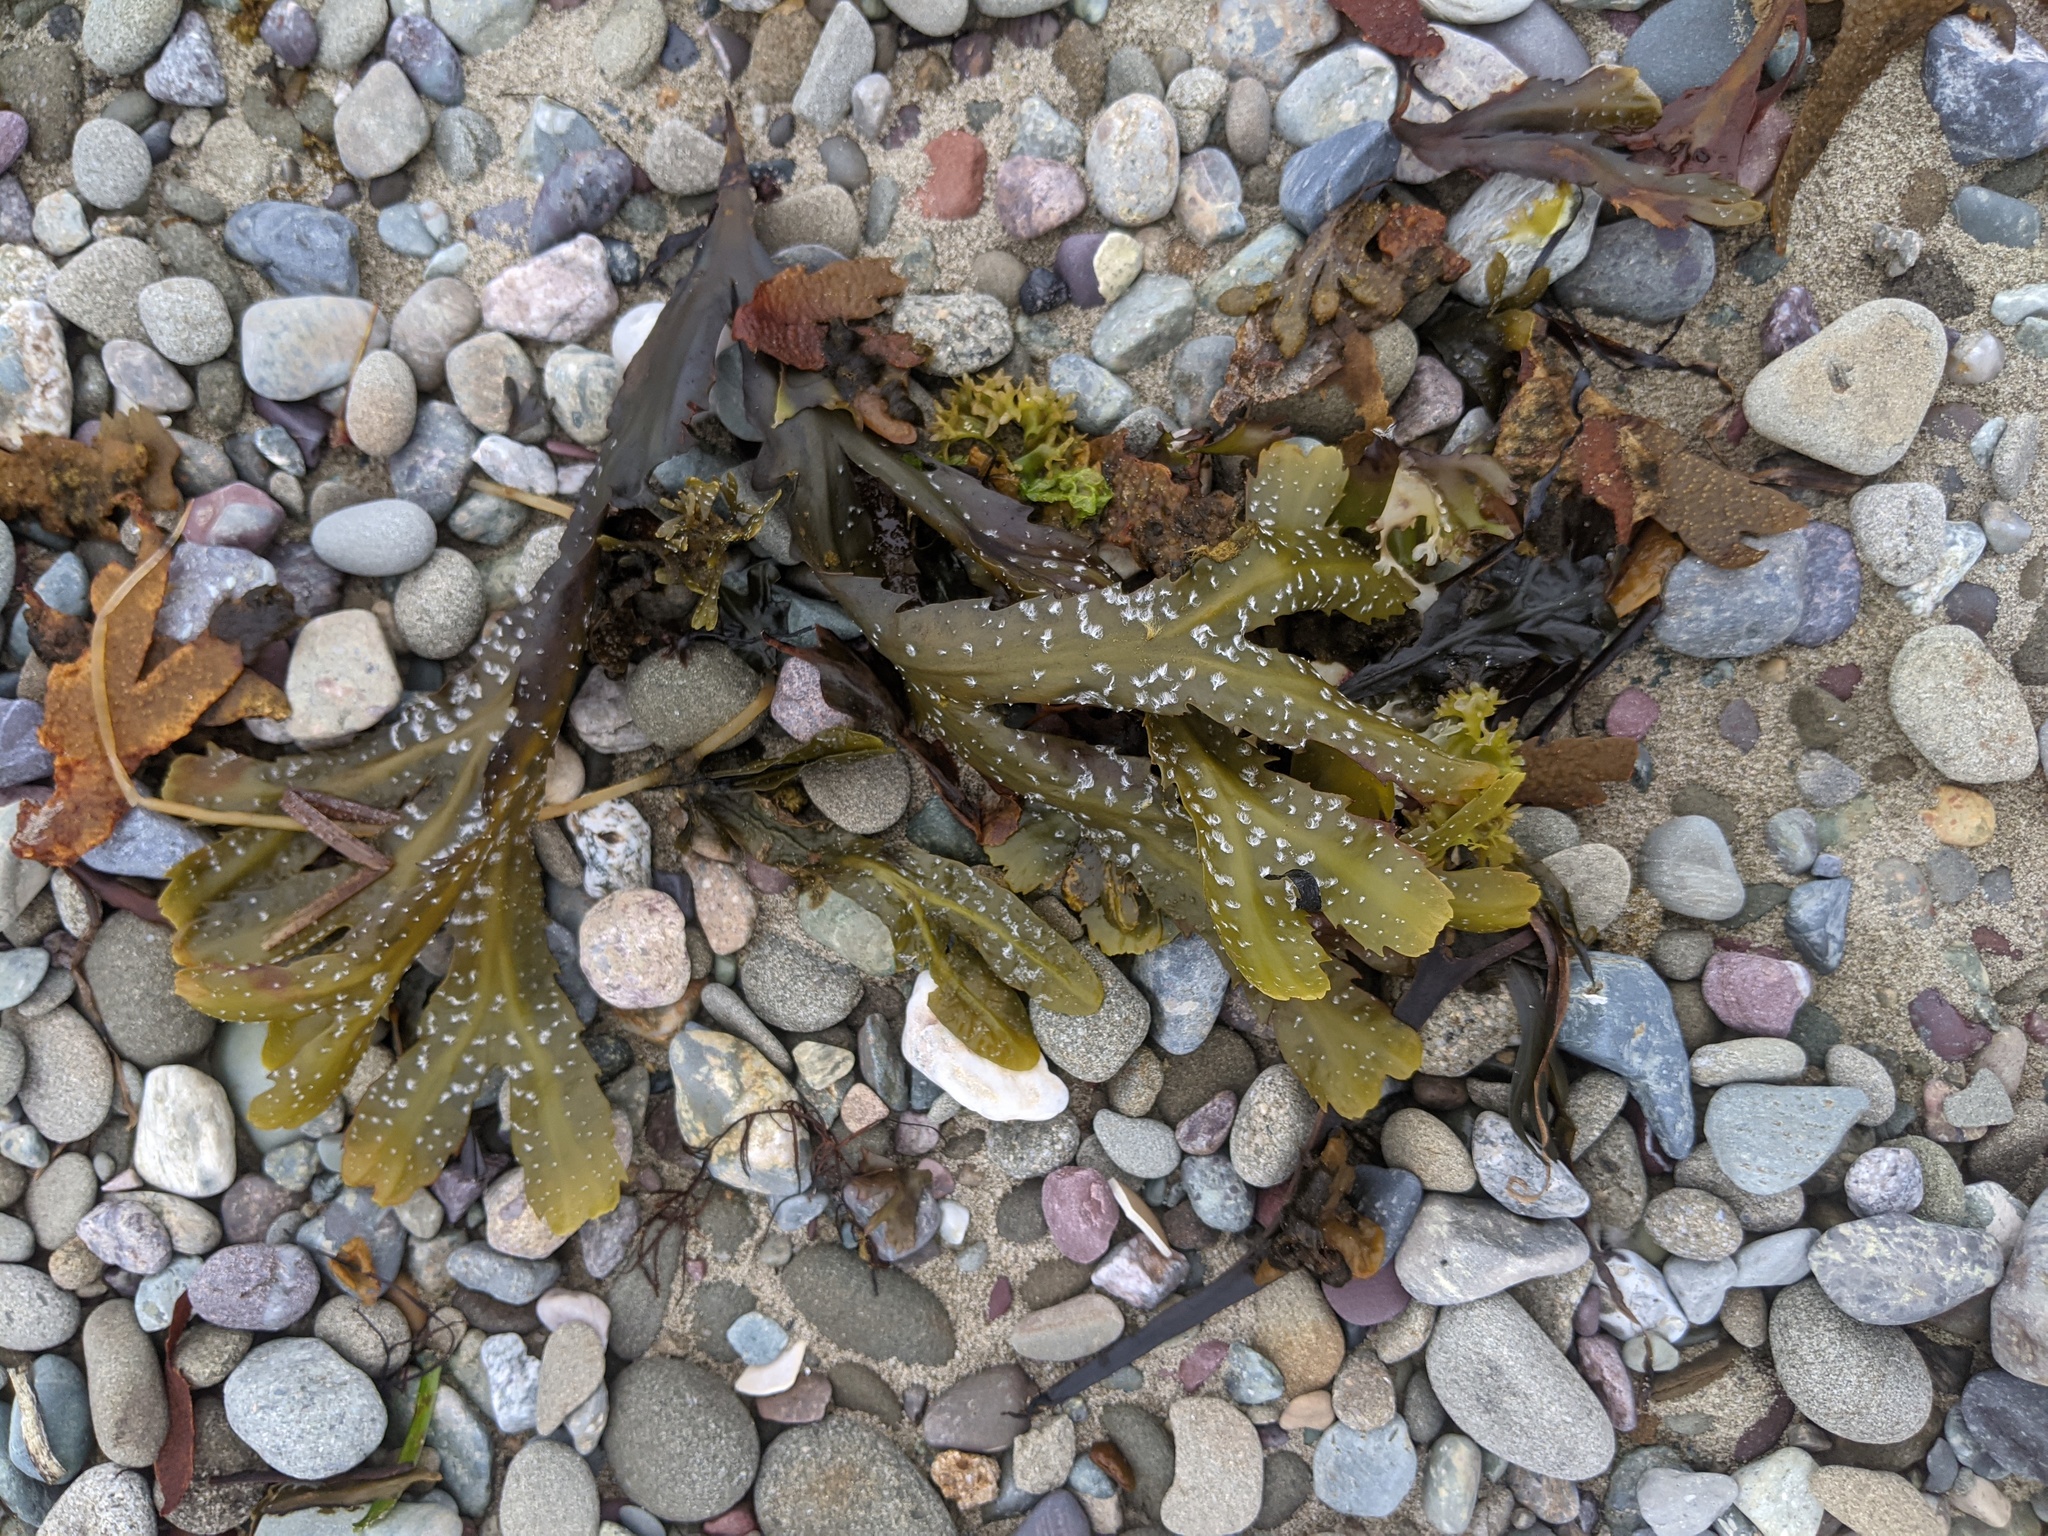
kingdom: Chromista
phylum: Ochrophyta
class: Phaeophyceae
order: Fucales
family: Fucaceae
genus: Fucus
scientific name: Fucus serratus
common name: Toothed wrack
